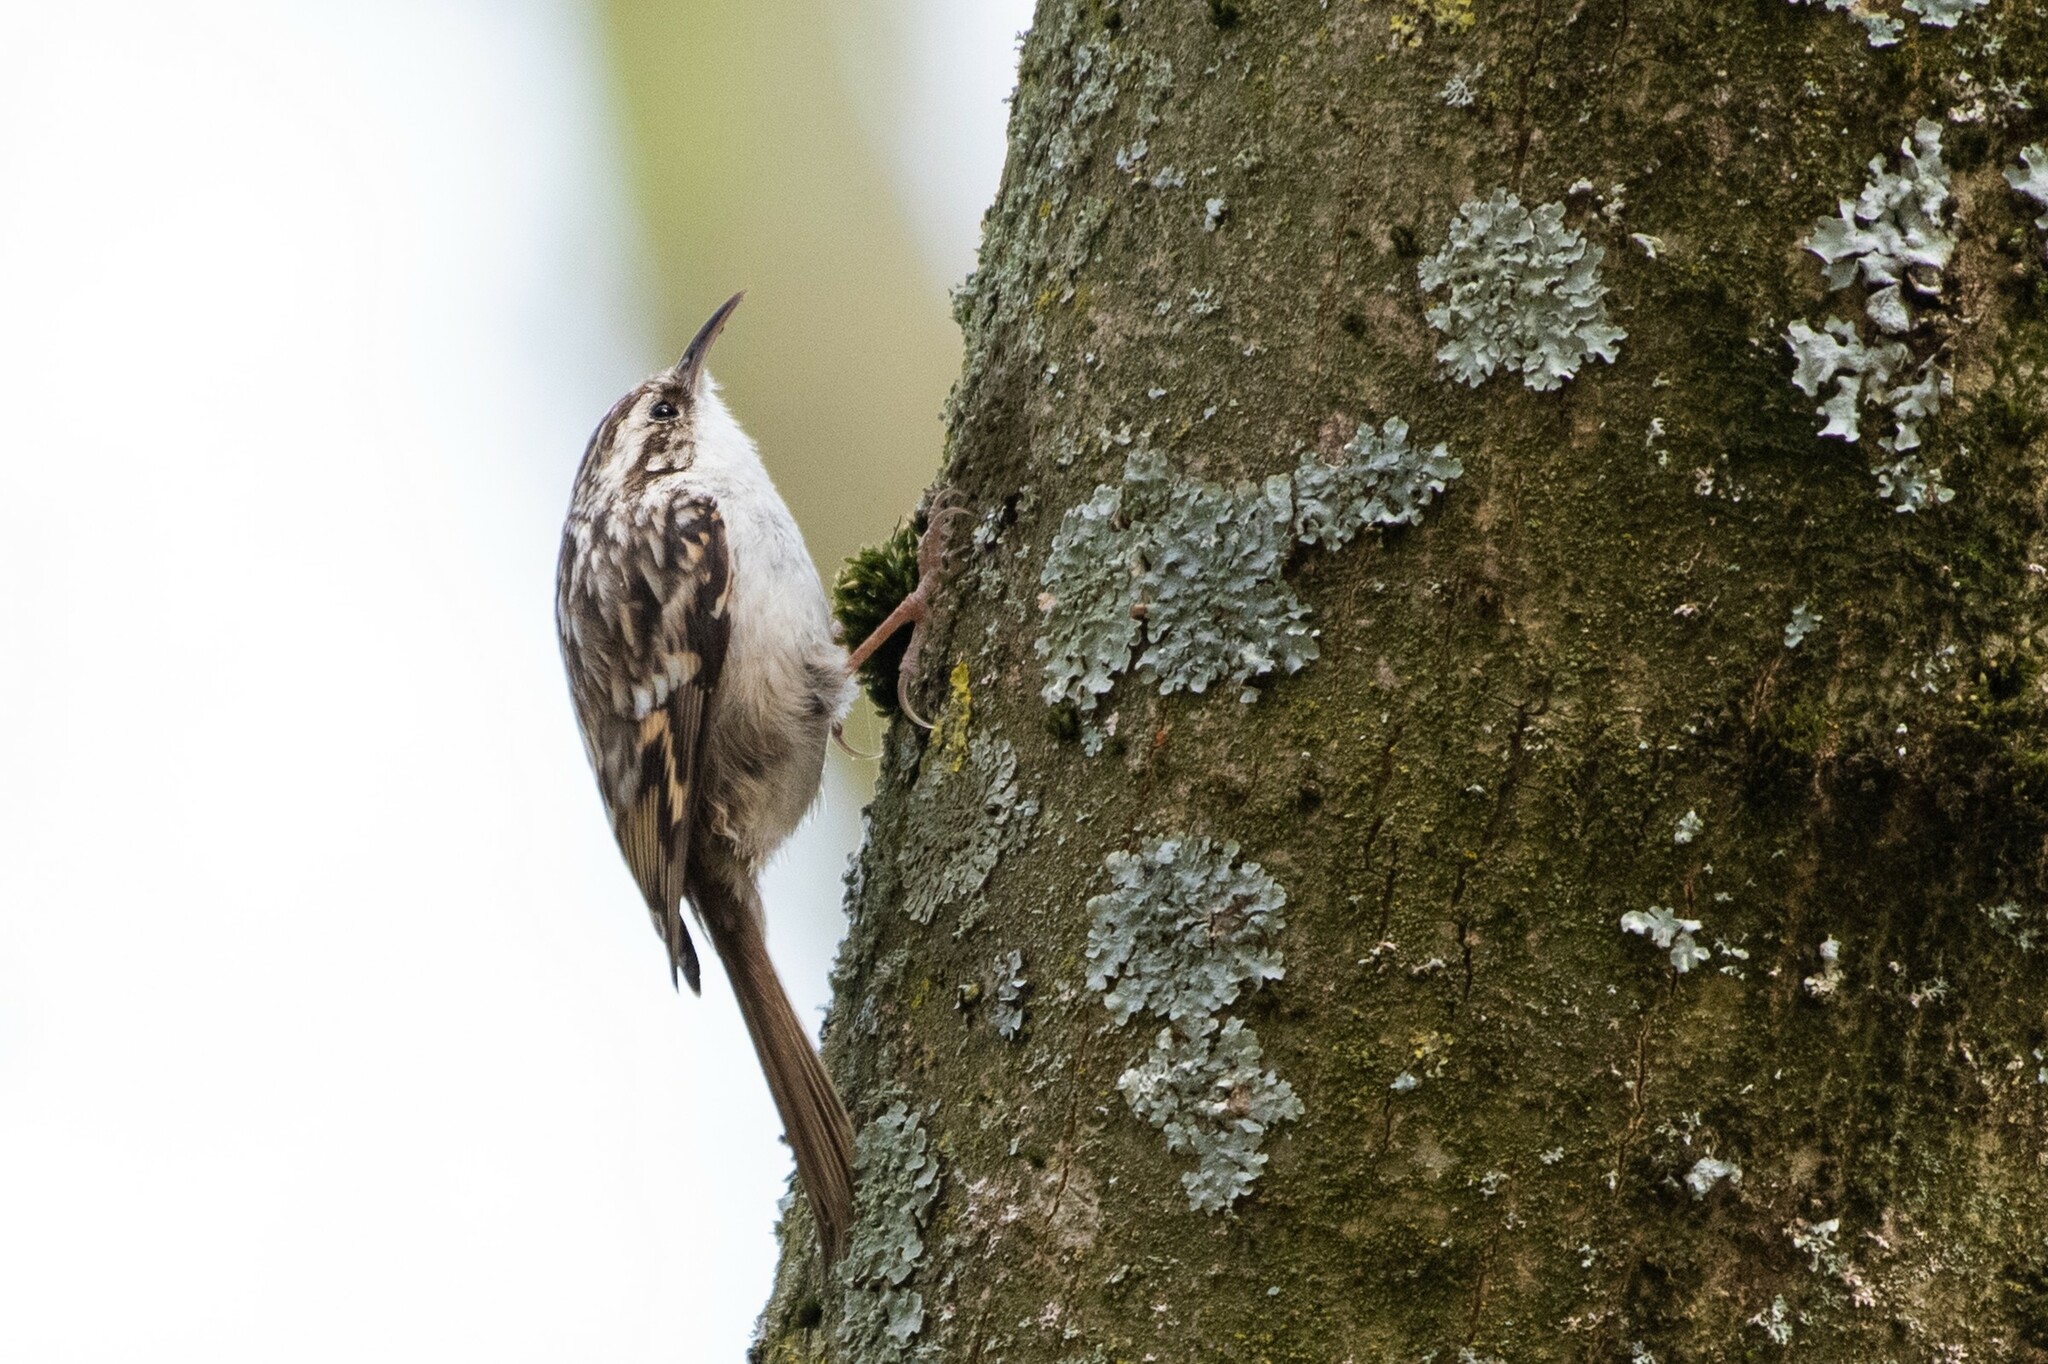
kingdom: Animalia
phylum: Chordata
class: Aves
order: Passeriformes
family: Certhiidae
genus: Certhia
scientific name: Certhia brachydactyla
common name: Short-toed treecreeper
